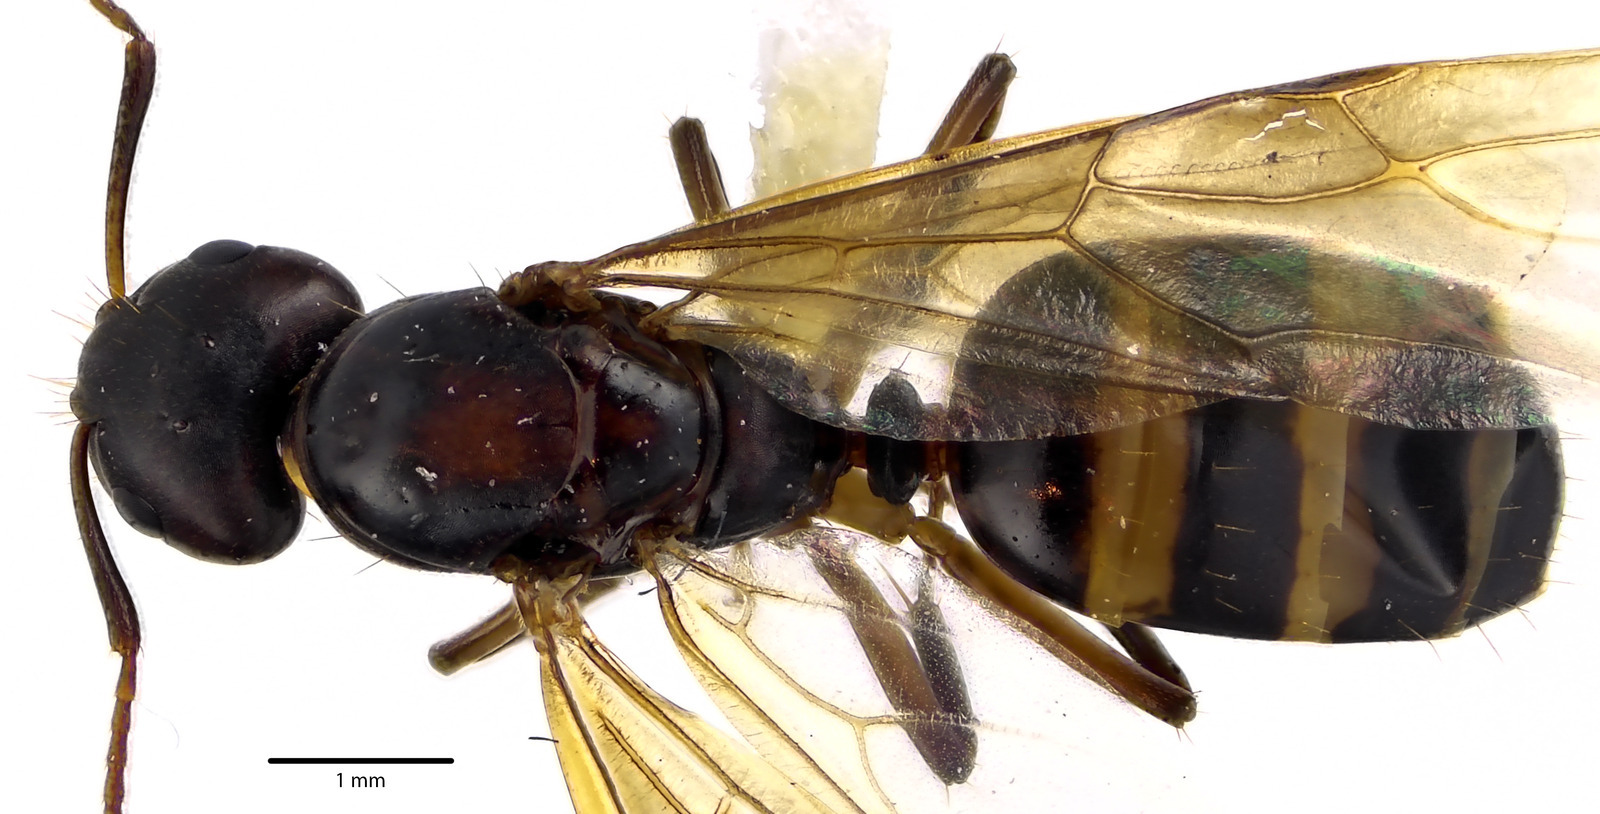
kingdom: Animalia
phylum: Arthropoda
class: Insecta
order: Hymenoptera
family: Formicidae
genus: Camponotus
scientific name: Camponotus subbarbatus
